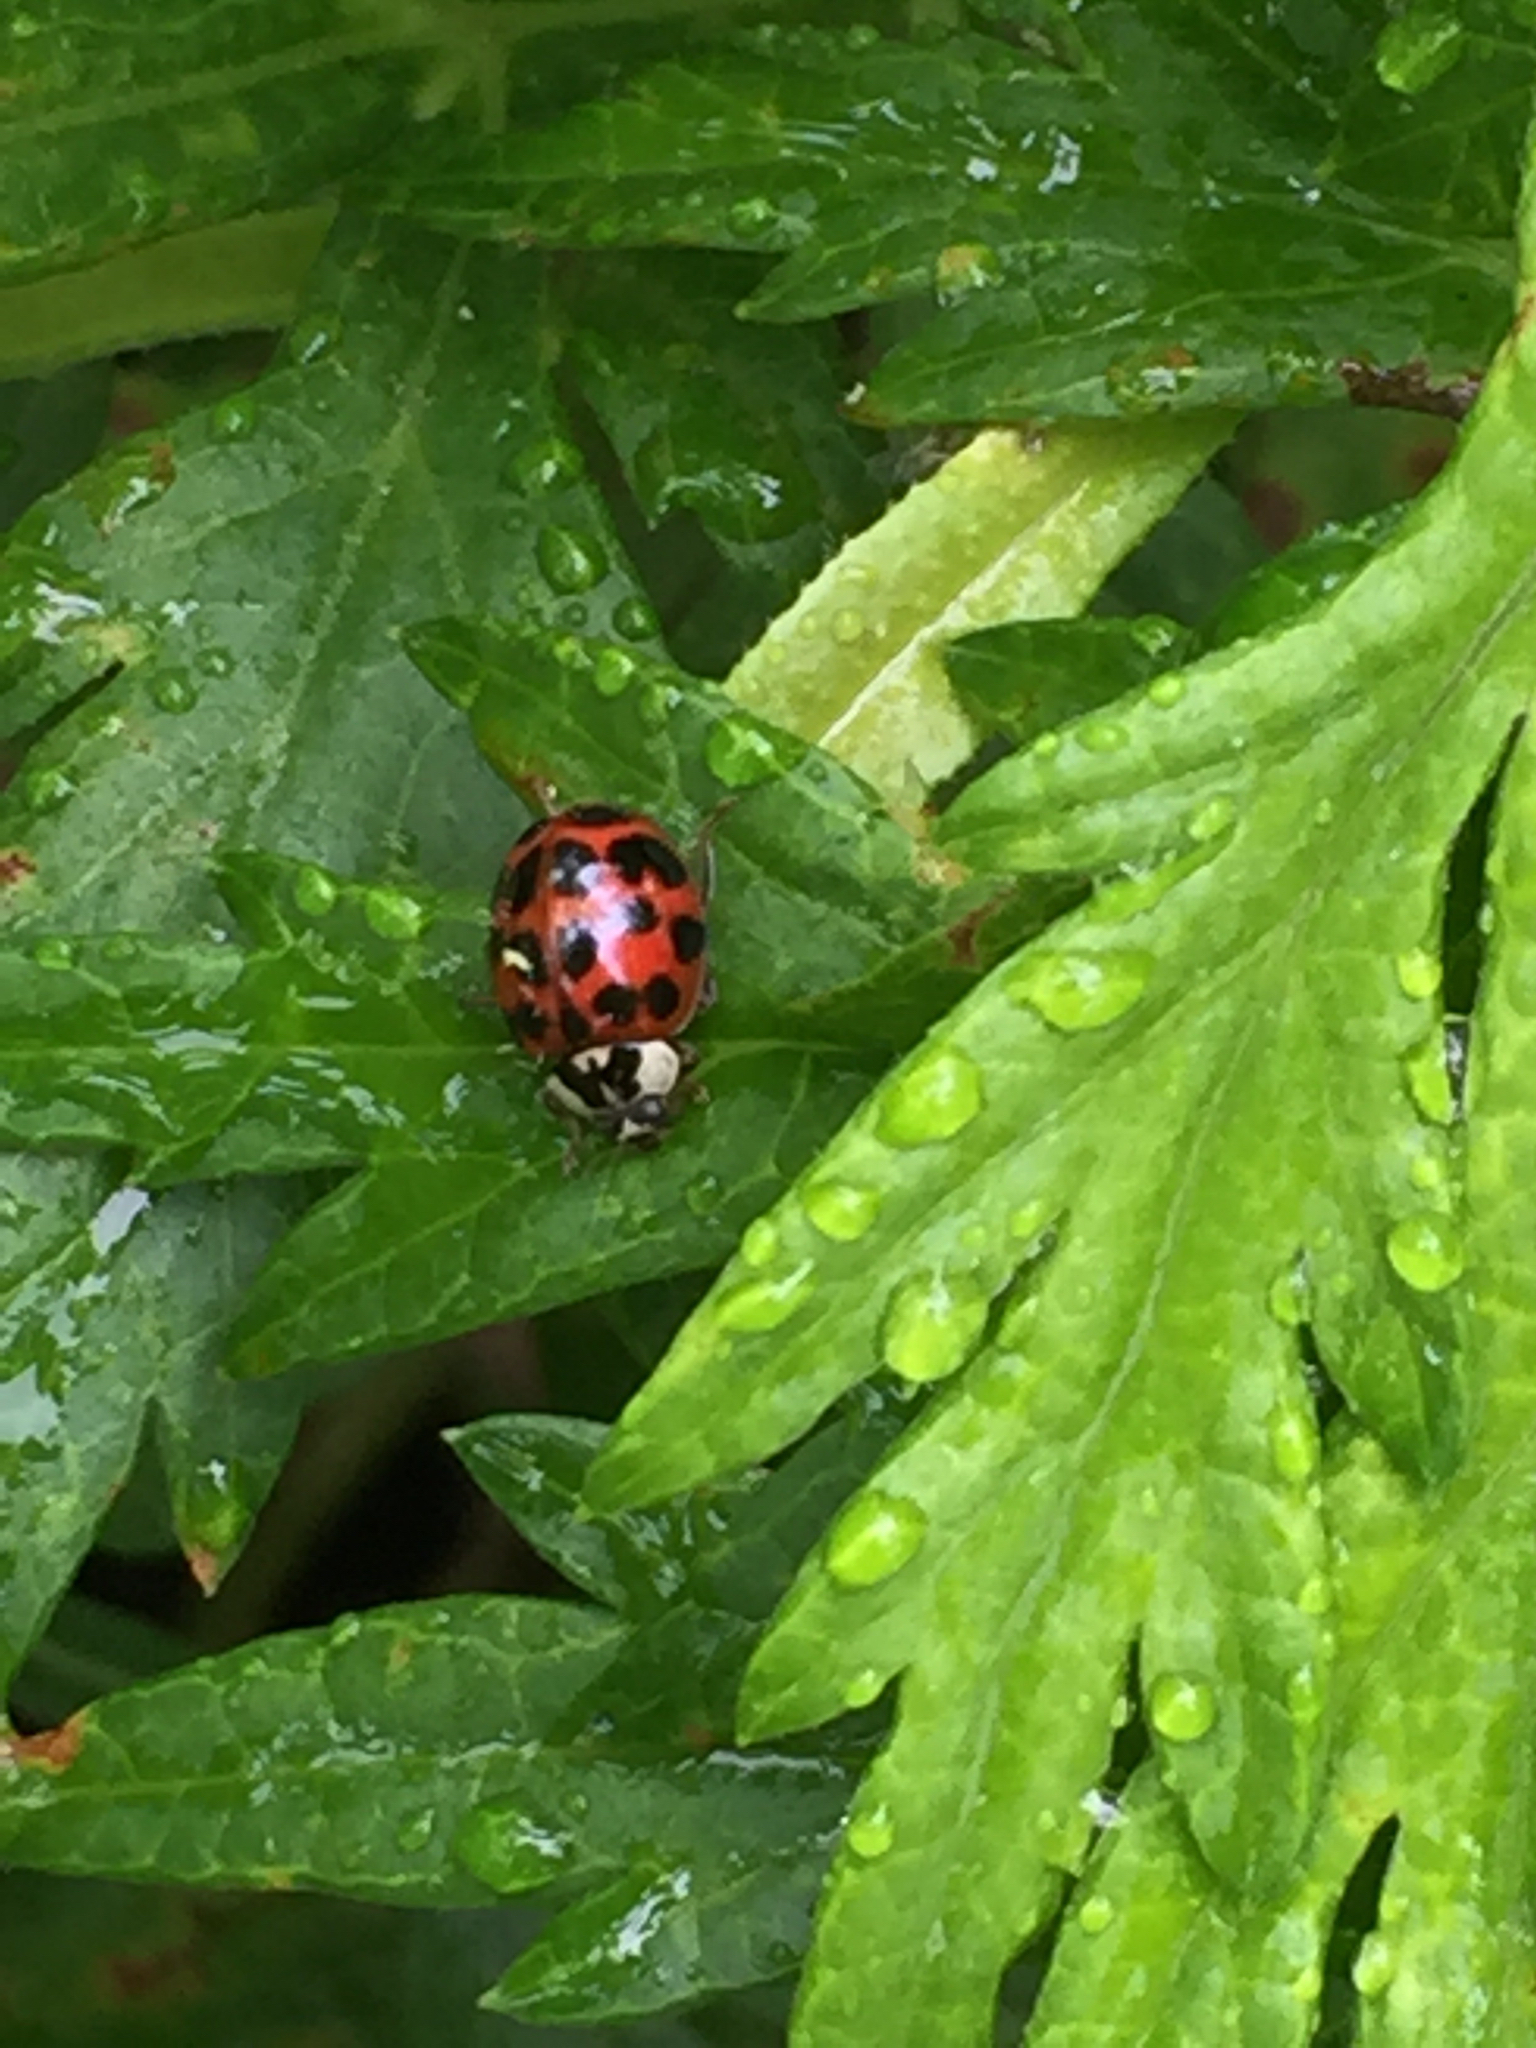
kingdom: Animalia
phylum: Arthropoda
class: Insecta
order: Coleoptera
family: Coccinellidae
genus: Harmonia
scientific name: Harmonia axyridis
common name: Harlequin ladybird
